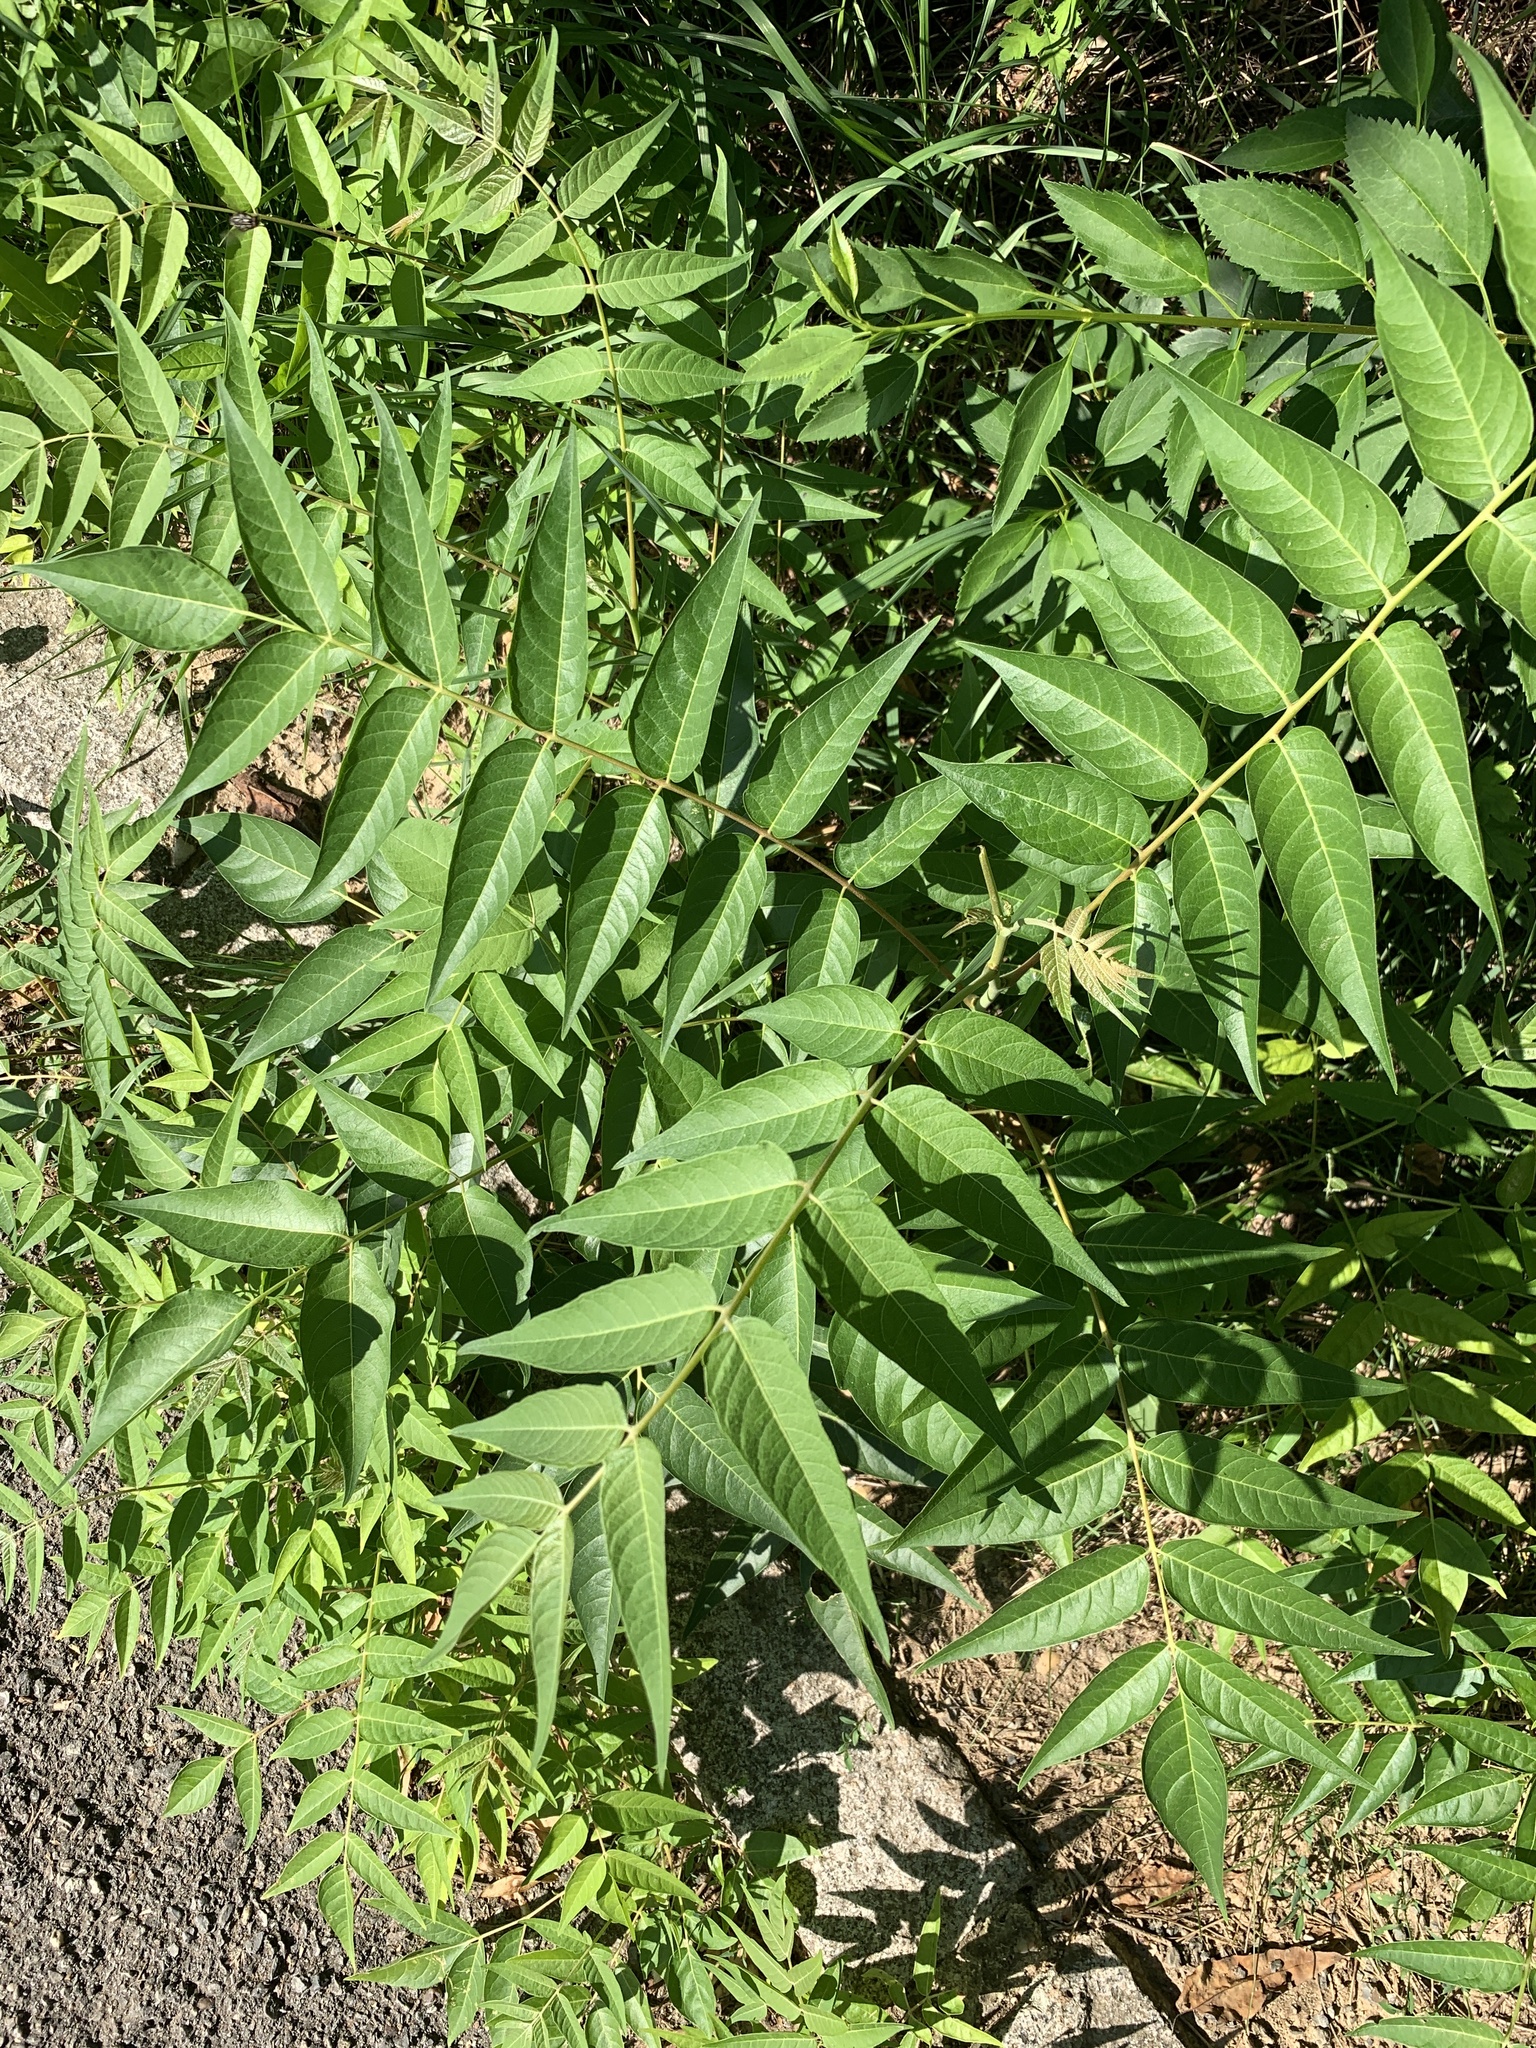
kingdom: Plantae
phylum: Tracheophyta
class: Magnoliopsida
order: Sapindales
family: Simaroubaceae
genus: Ailanthus
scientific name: Ailanthus altissima
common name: Tree-of-heaven
